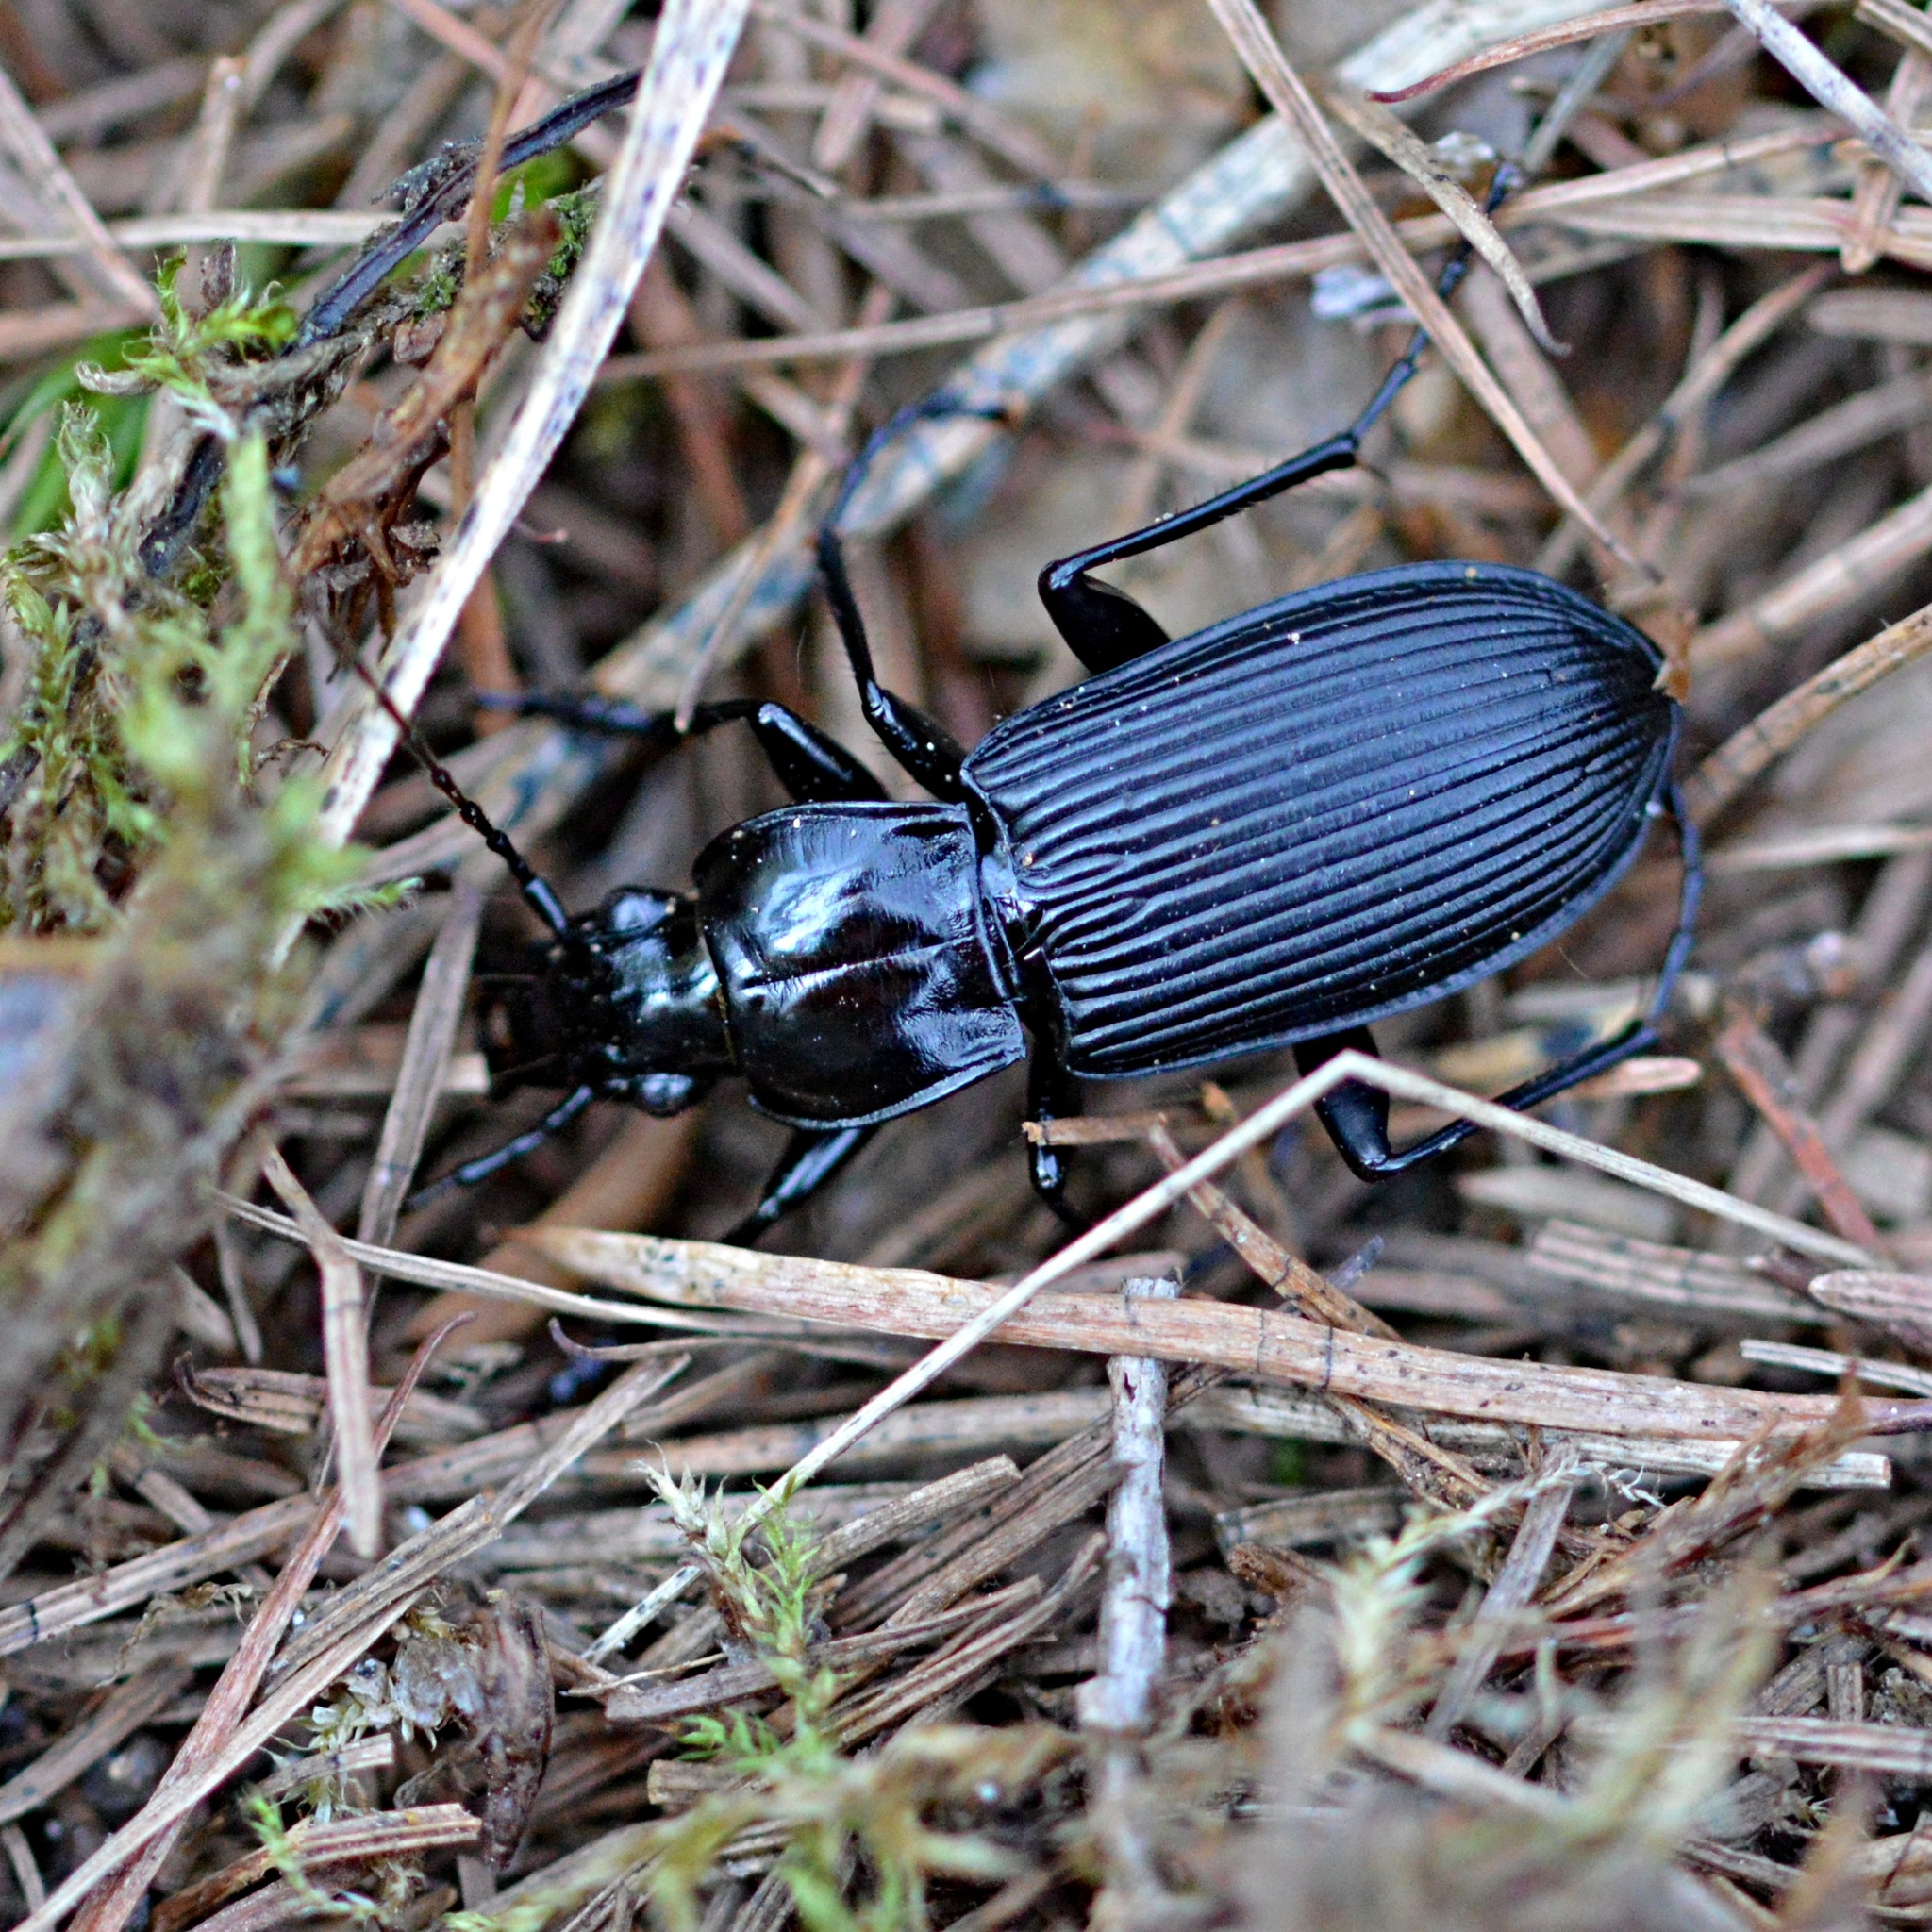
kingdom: Animalia
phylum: Arthropoda
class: Insecta
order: Coleoptera
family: Carabidae
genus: Pterostichus
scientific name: Pterostichus niger
